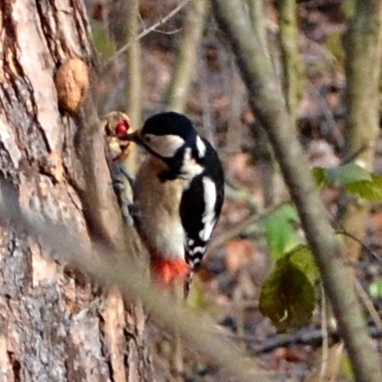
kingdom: Animalia
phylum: Chordata
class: Aves
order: Piciformes
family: Picidae
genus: Dendrocopos
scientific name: Dendrocopos major
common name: Great spotted woodpecker
